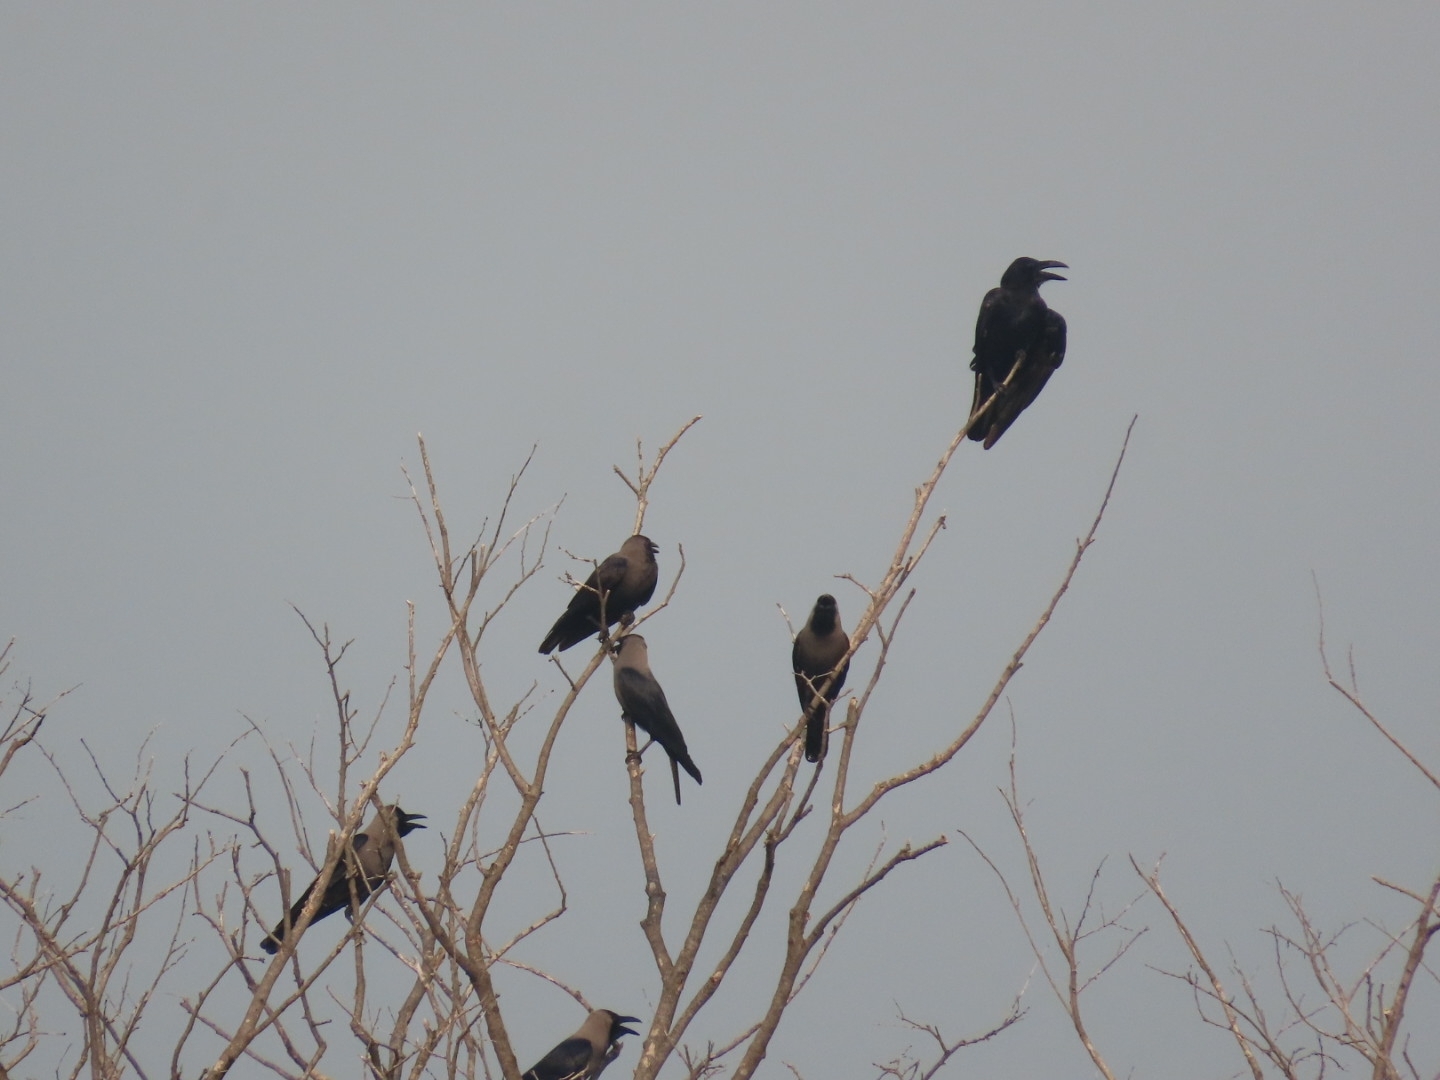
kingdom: Animalia
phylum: Chordata
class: Aves
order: Passeriformes
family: Corvidae
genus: Corvus
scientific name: Corvus splendens
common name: House crow
